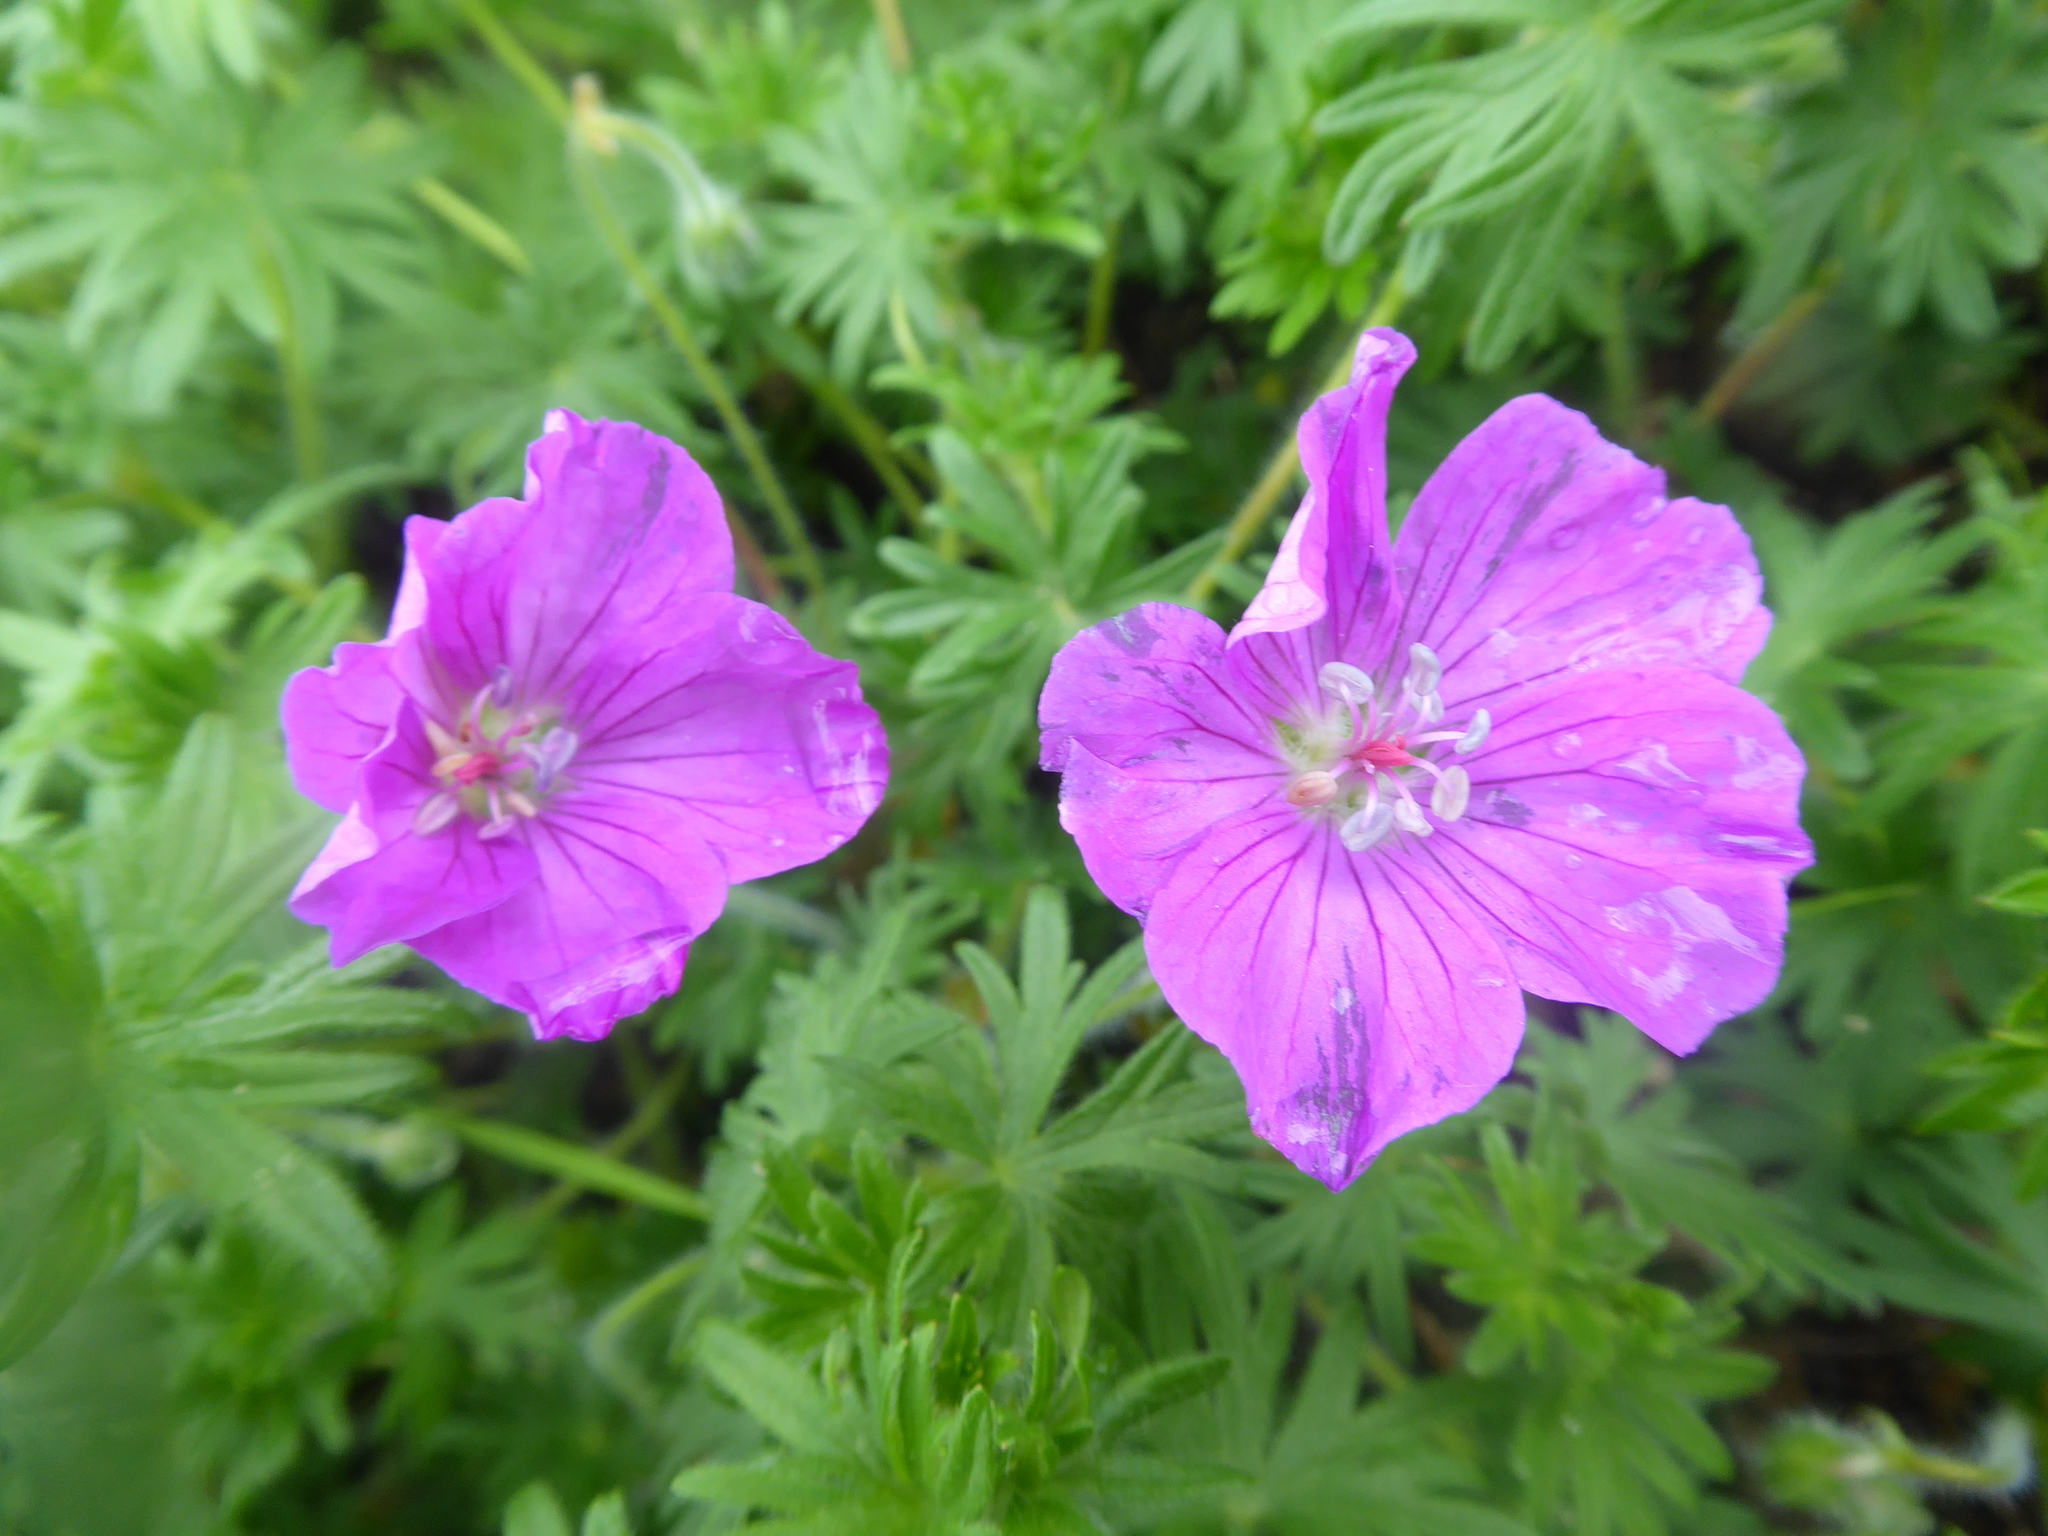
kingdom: Plantae
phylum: Tracheophyta
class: Magnoliopsida
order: Geraniales
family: Geraniaceae
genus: Geranium
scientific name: Geranium sanguineum
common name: Bloody crane's-bill
